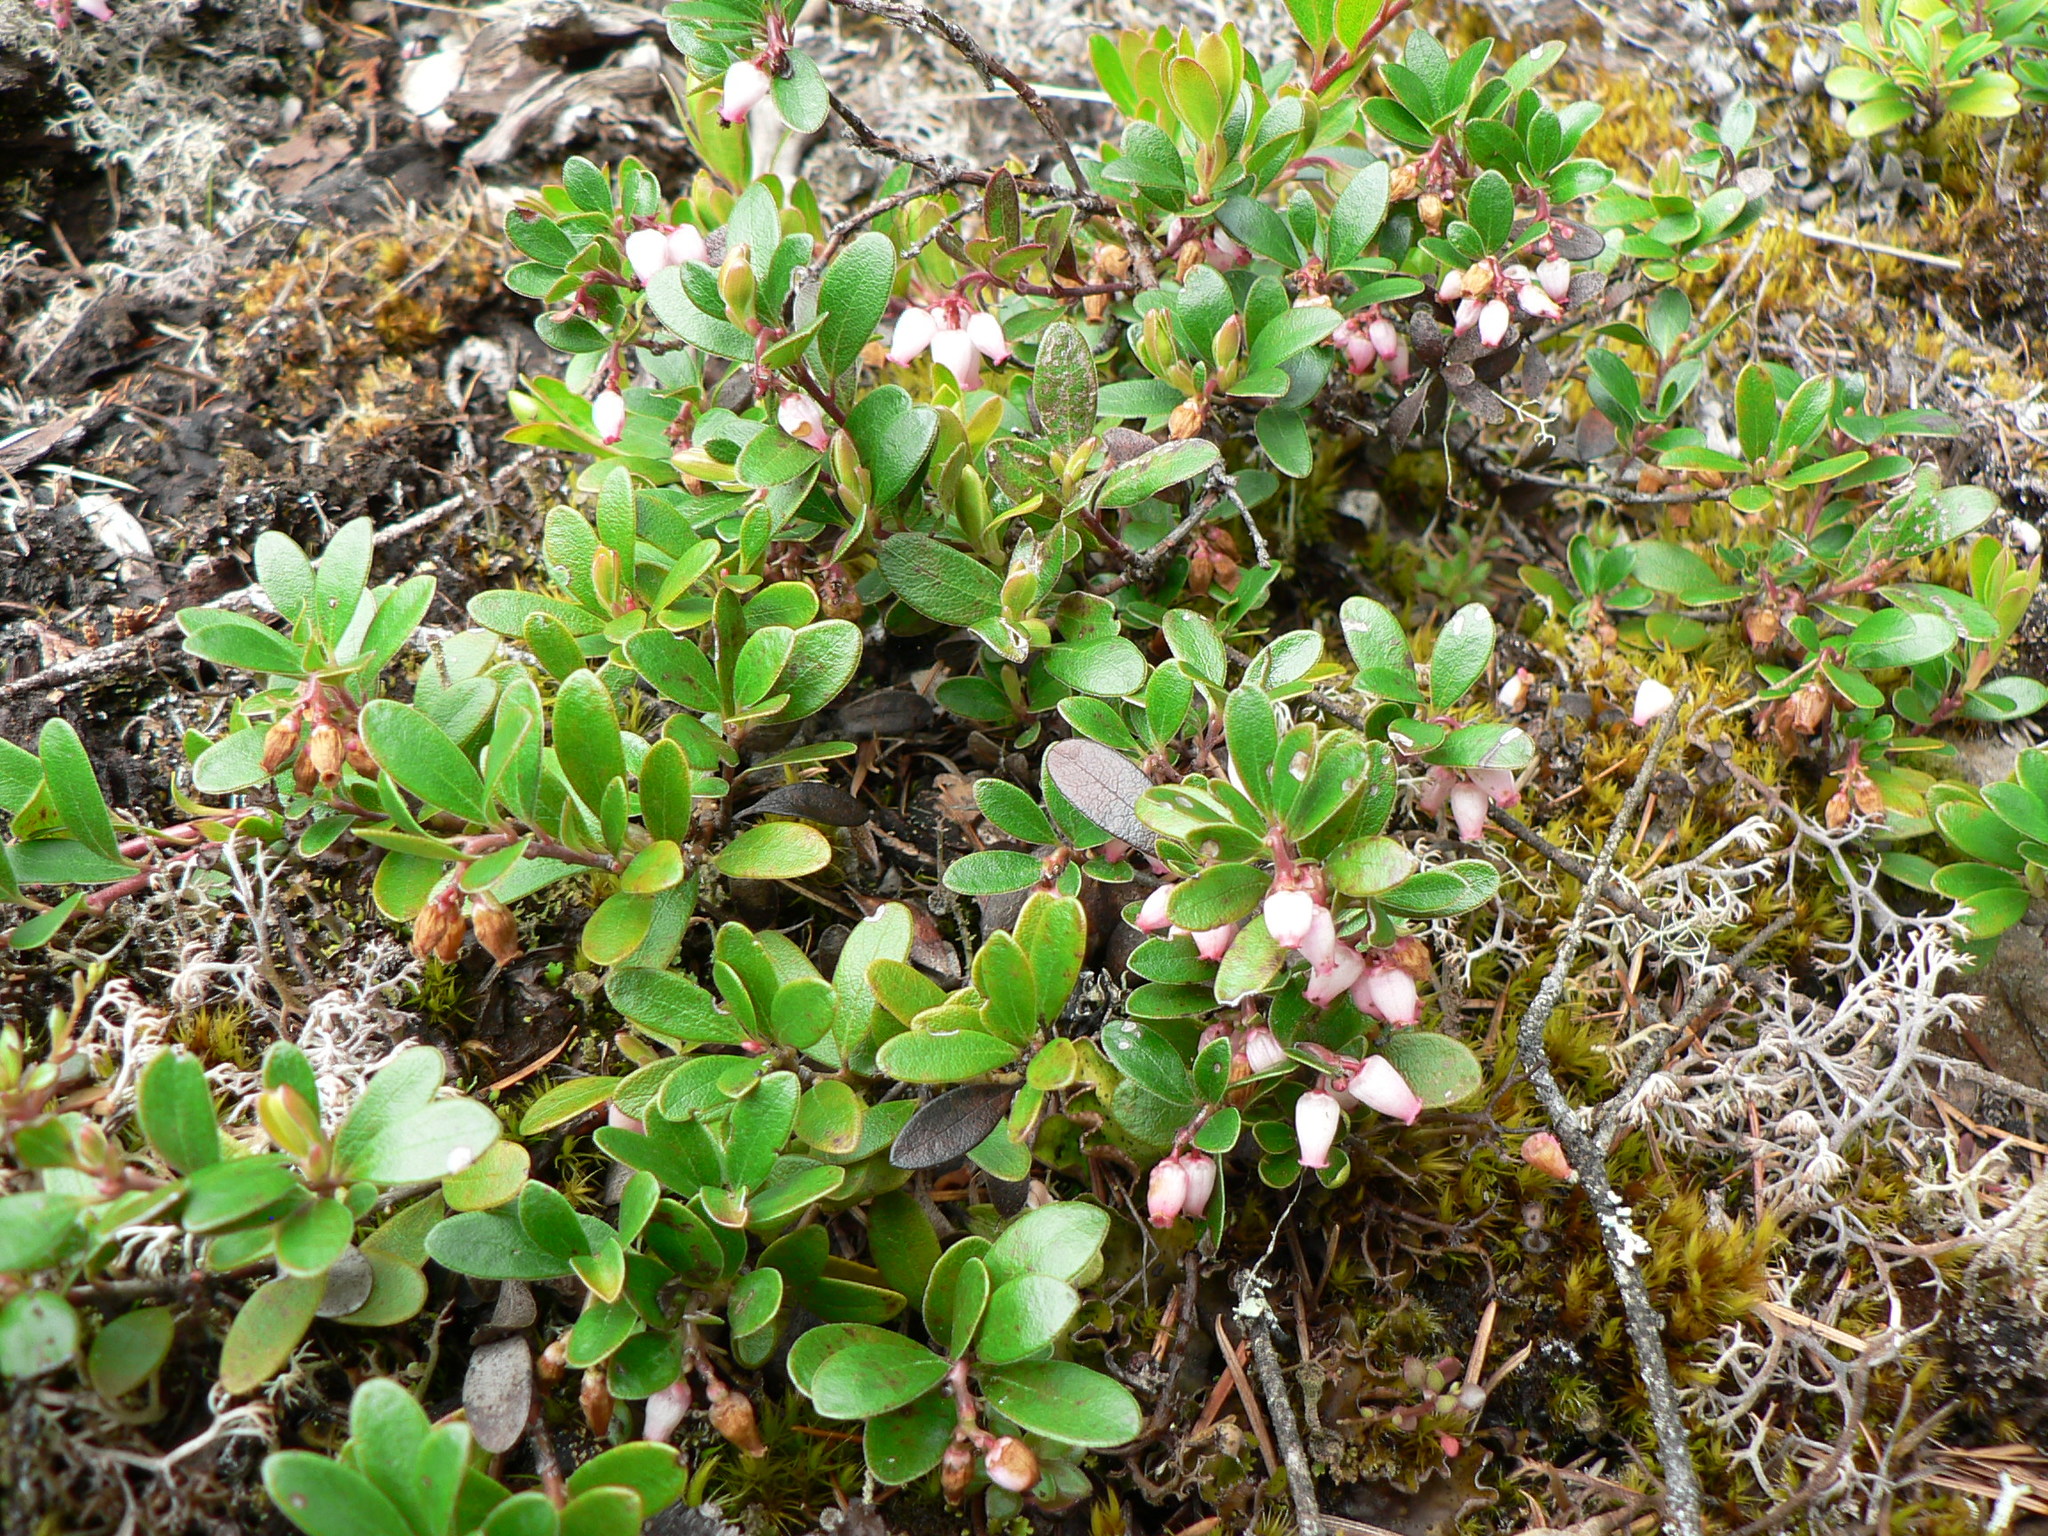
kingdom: Plantae
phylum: Tracheophyta
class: Magnoliopsida
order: Ericales
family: Ericaceae
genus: Arctostaphylos
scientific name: Arctostaphylos uva-ursi
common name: Bearberry
